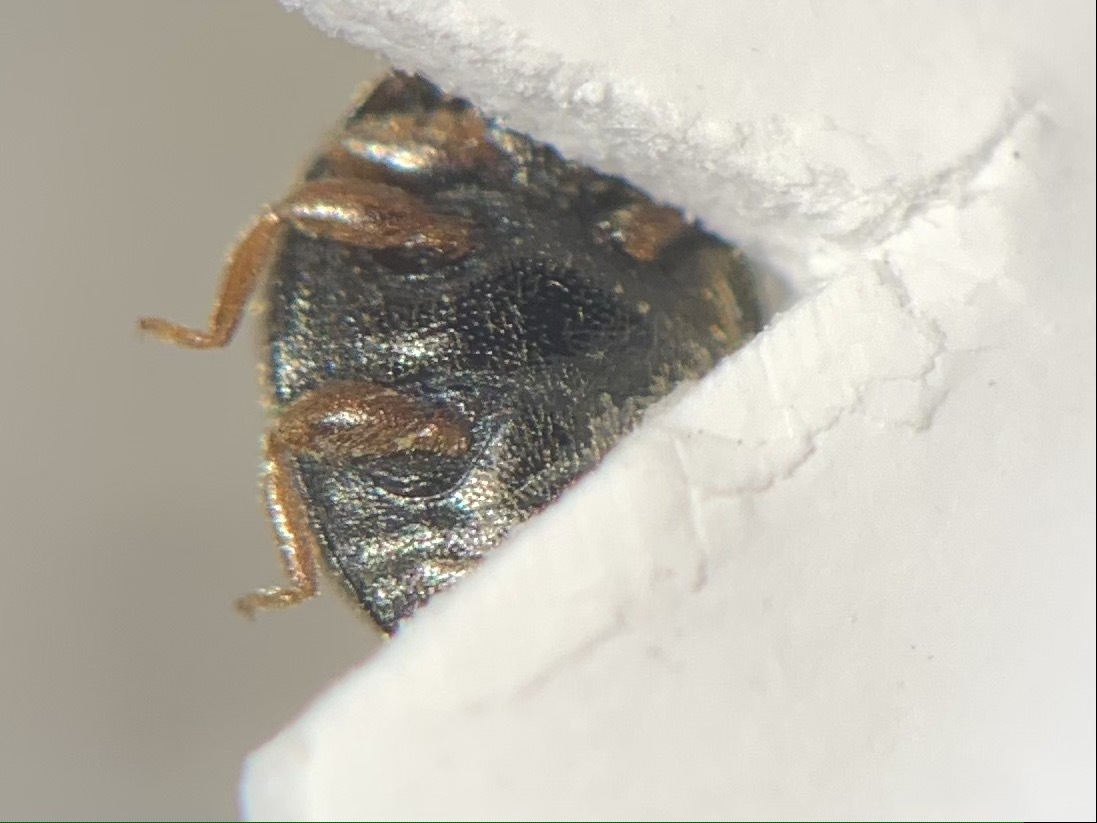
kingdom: Animalia
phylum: Arthropoda
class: Insecta
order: Coleoptera
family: Coccinellidae
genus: Scymnus
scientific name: Scymnus auritus
